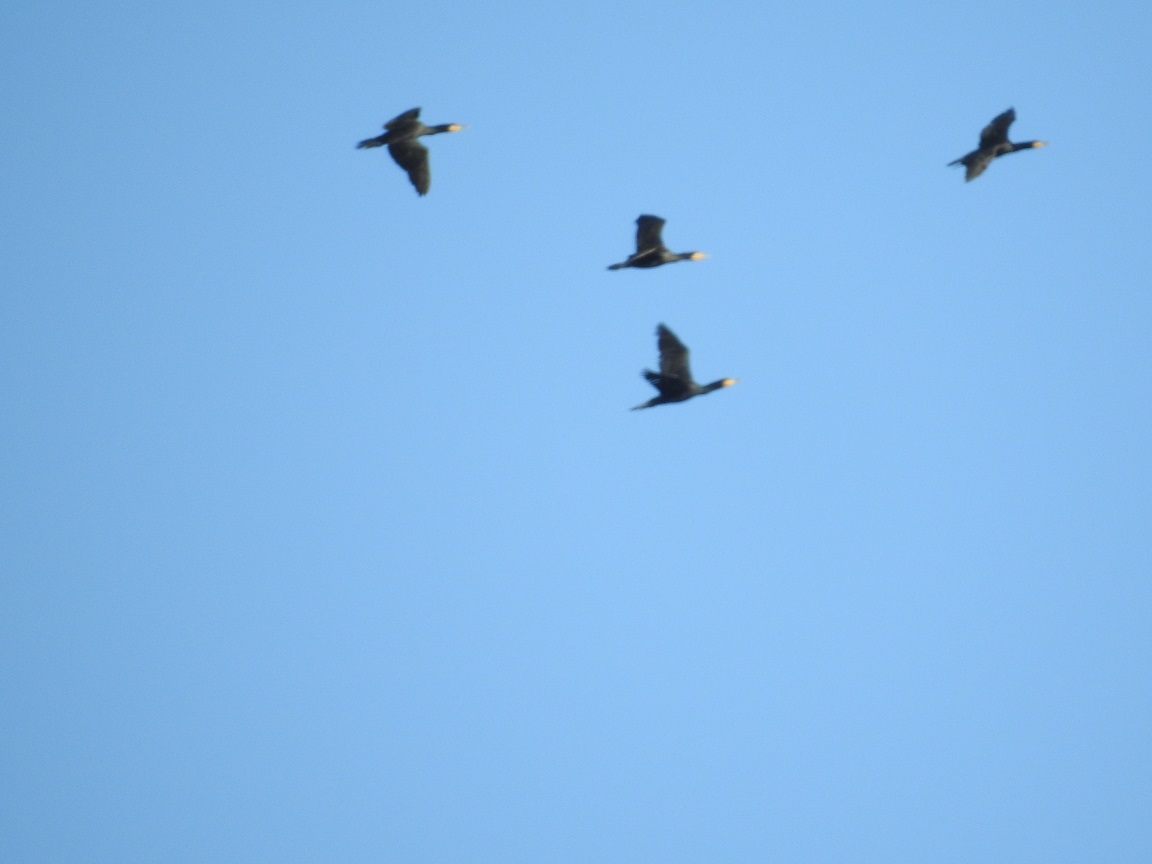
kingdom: Animalia
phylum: Chordata
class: Aves
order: Suliformes
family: Phalacrocoracidae
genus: Phalacrocorax
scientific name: Phalacrocorax carbo
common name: Great cormorant
